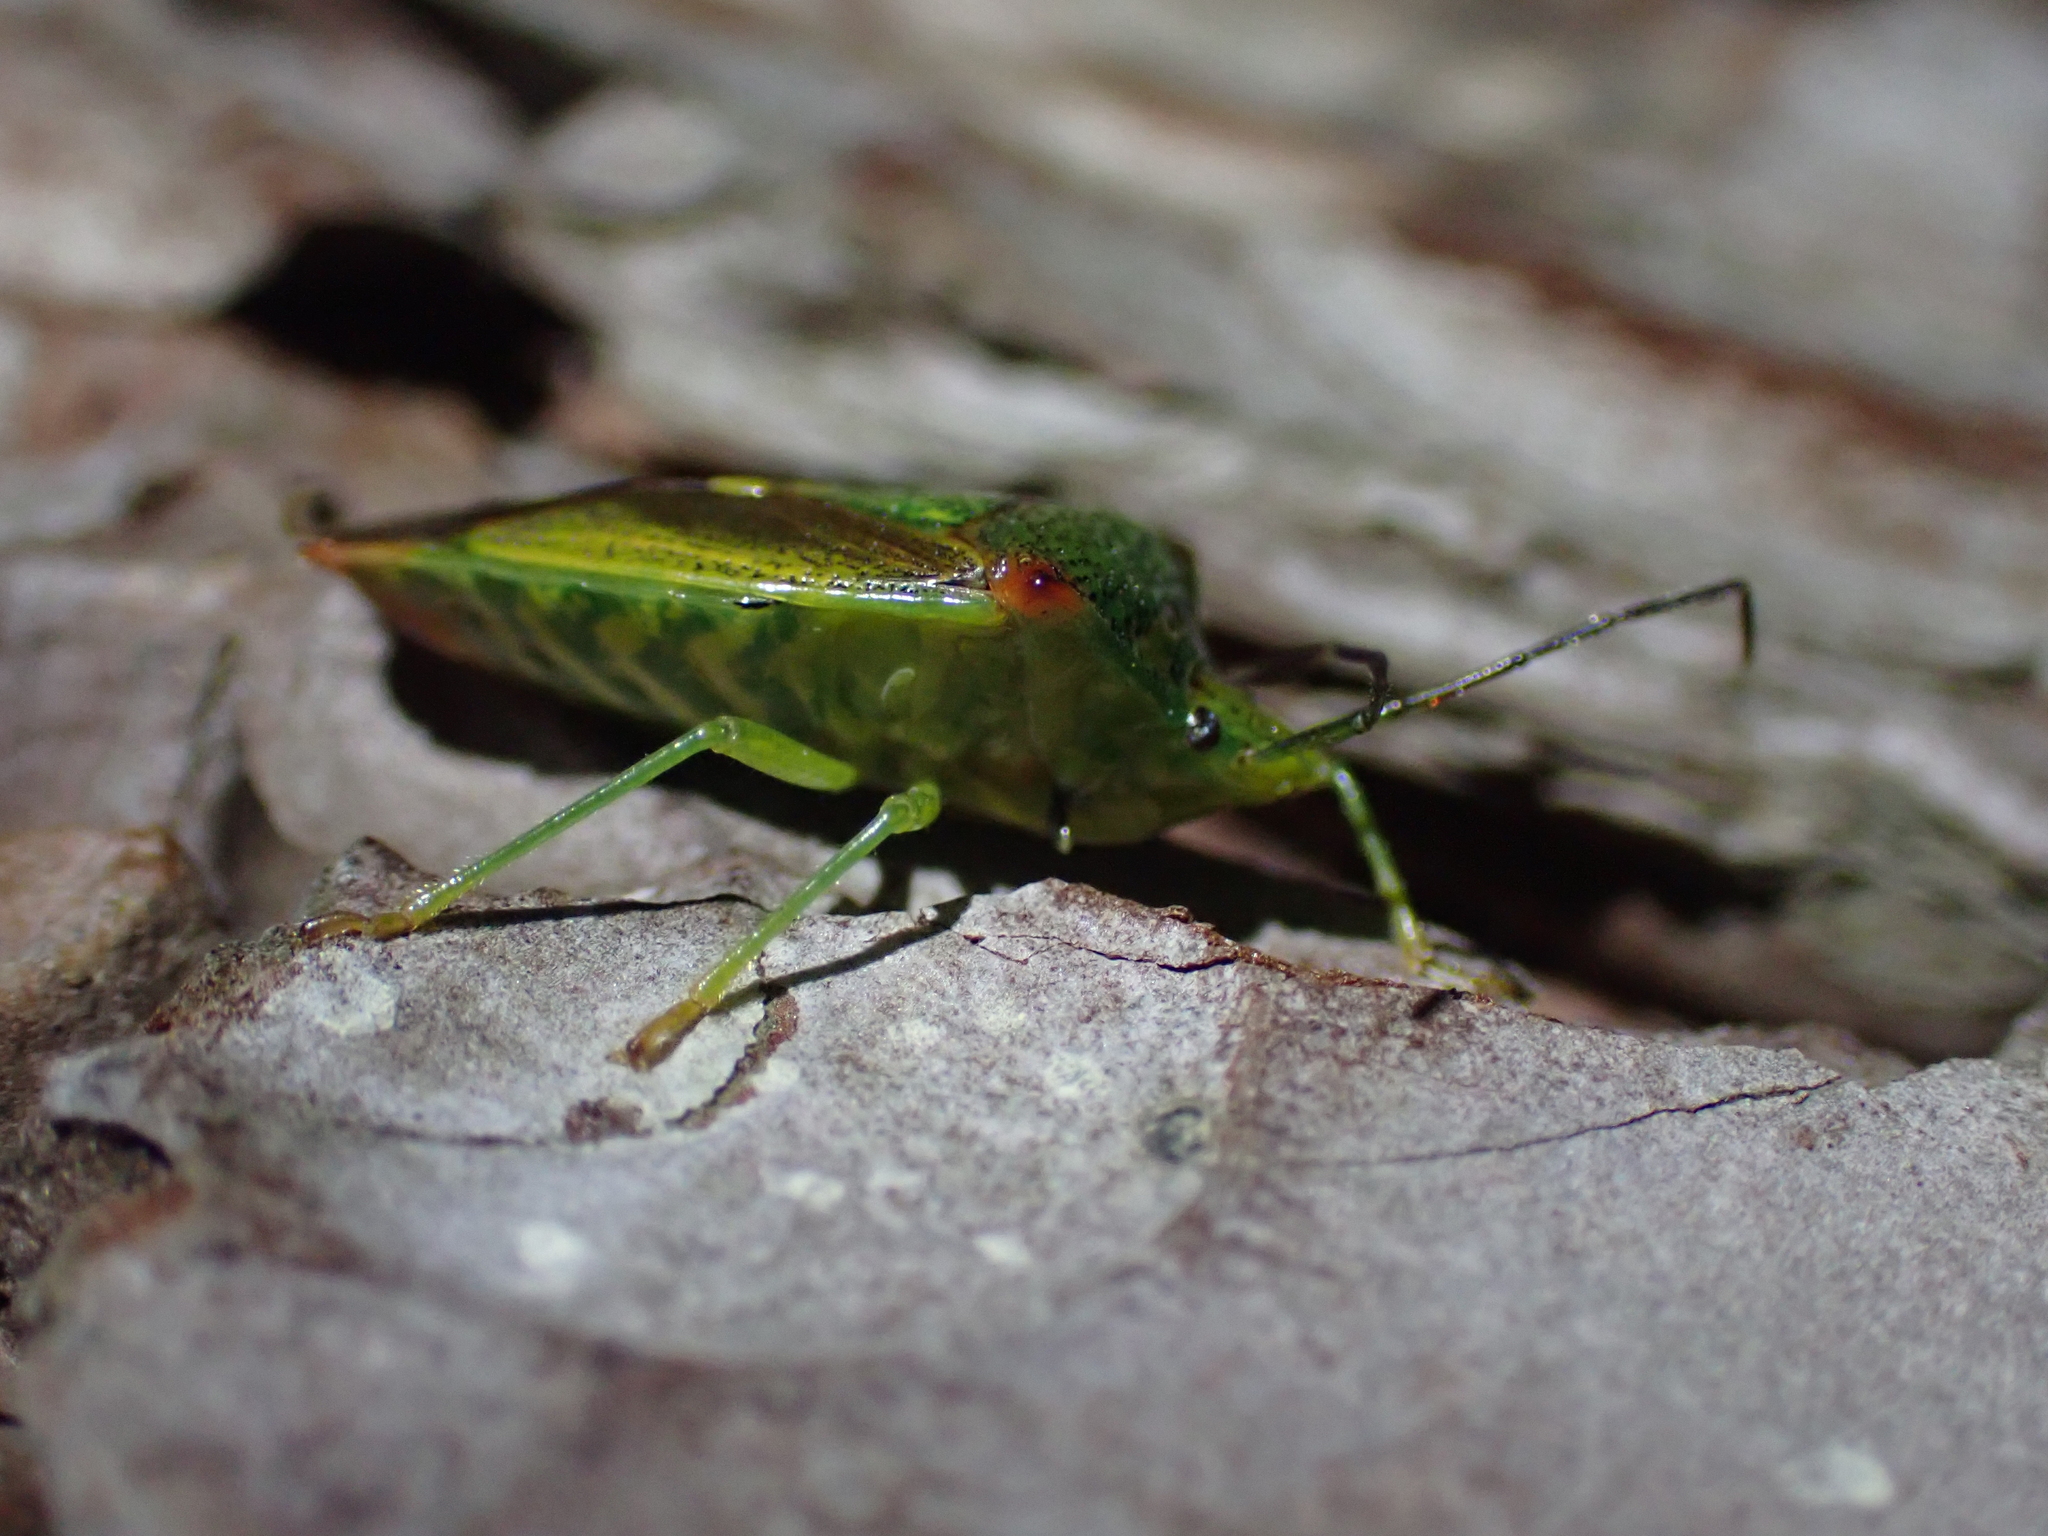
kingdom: Animalia
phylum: Arthropoda
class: Insecta
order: Hemiptera
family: Acanthosomatidae
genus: Acanthosoma
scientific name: Acanthosoma haemorrhoidale
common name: Hawthorn shieldbug
